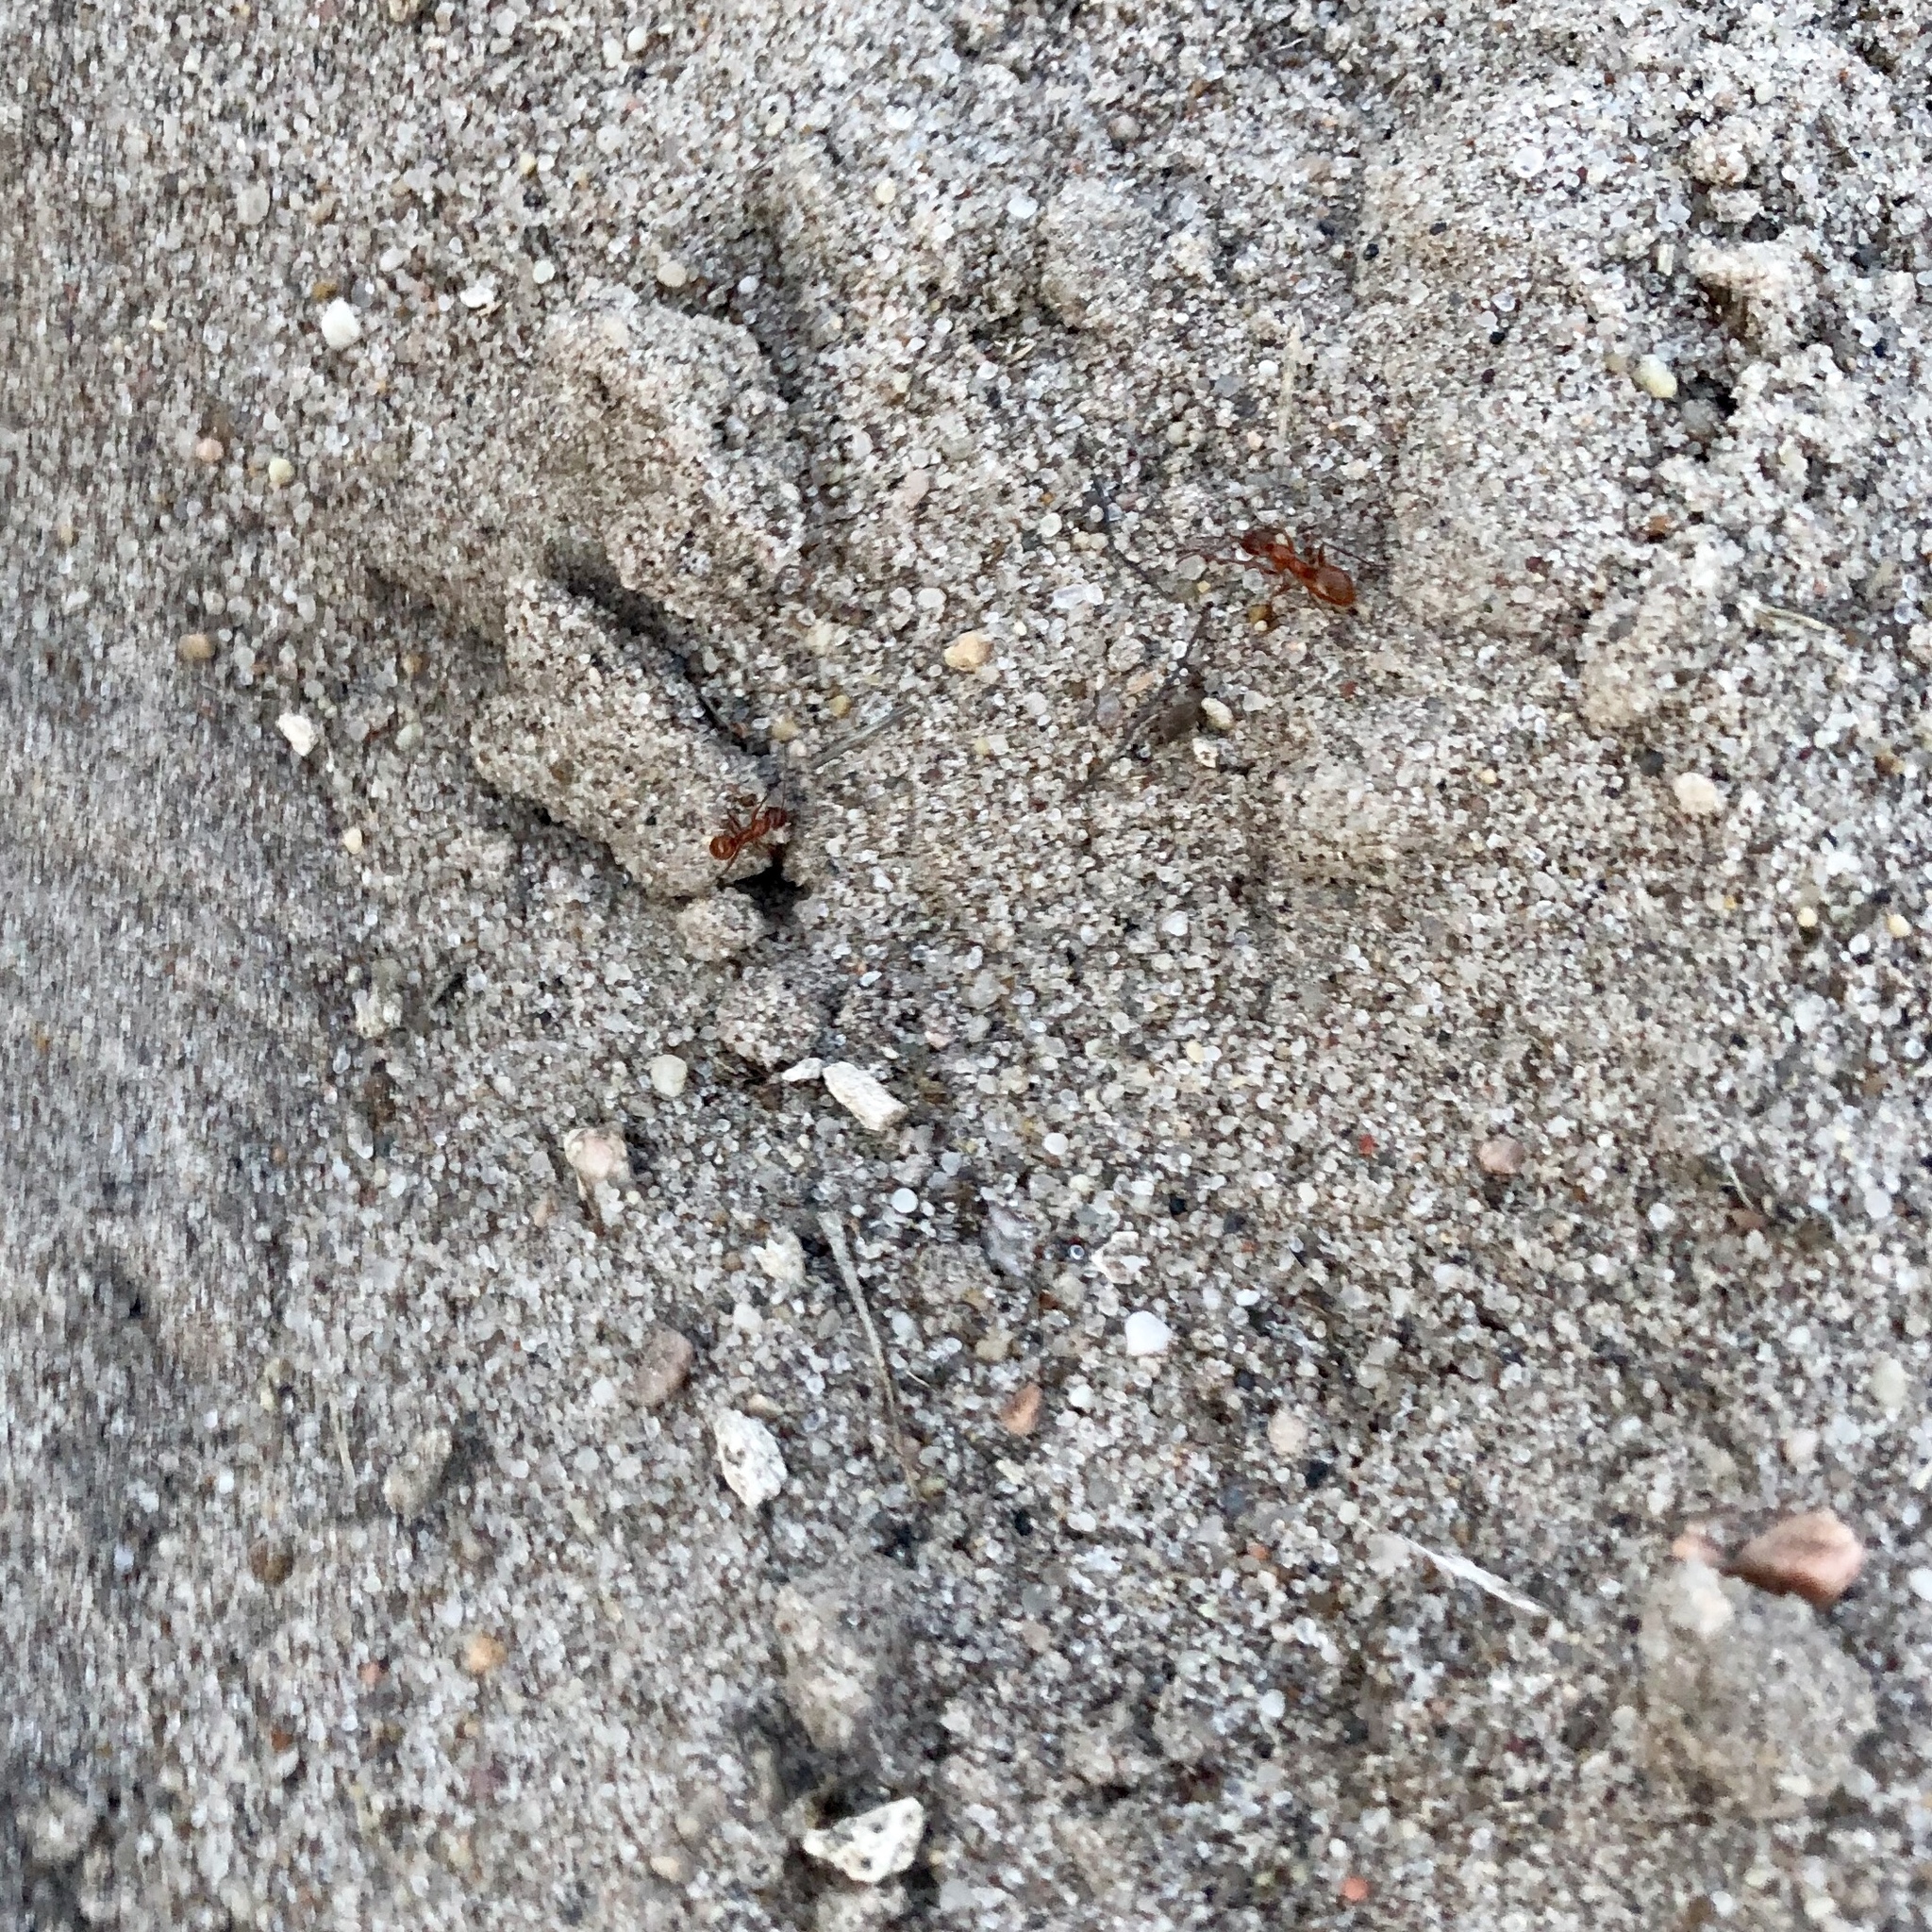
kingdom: Animalia
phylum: Arthropoda
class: Insecta
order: Hymenoptera
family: Formicidae
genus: Formica
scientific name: Formica bradleyi
